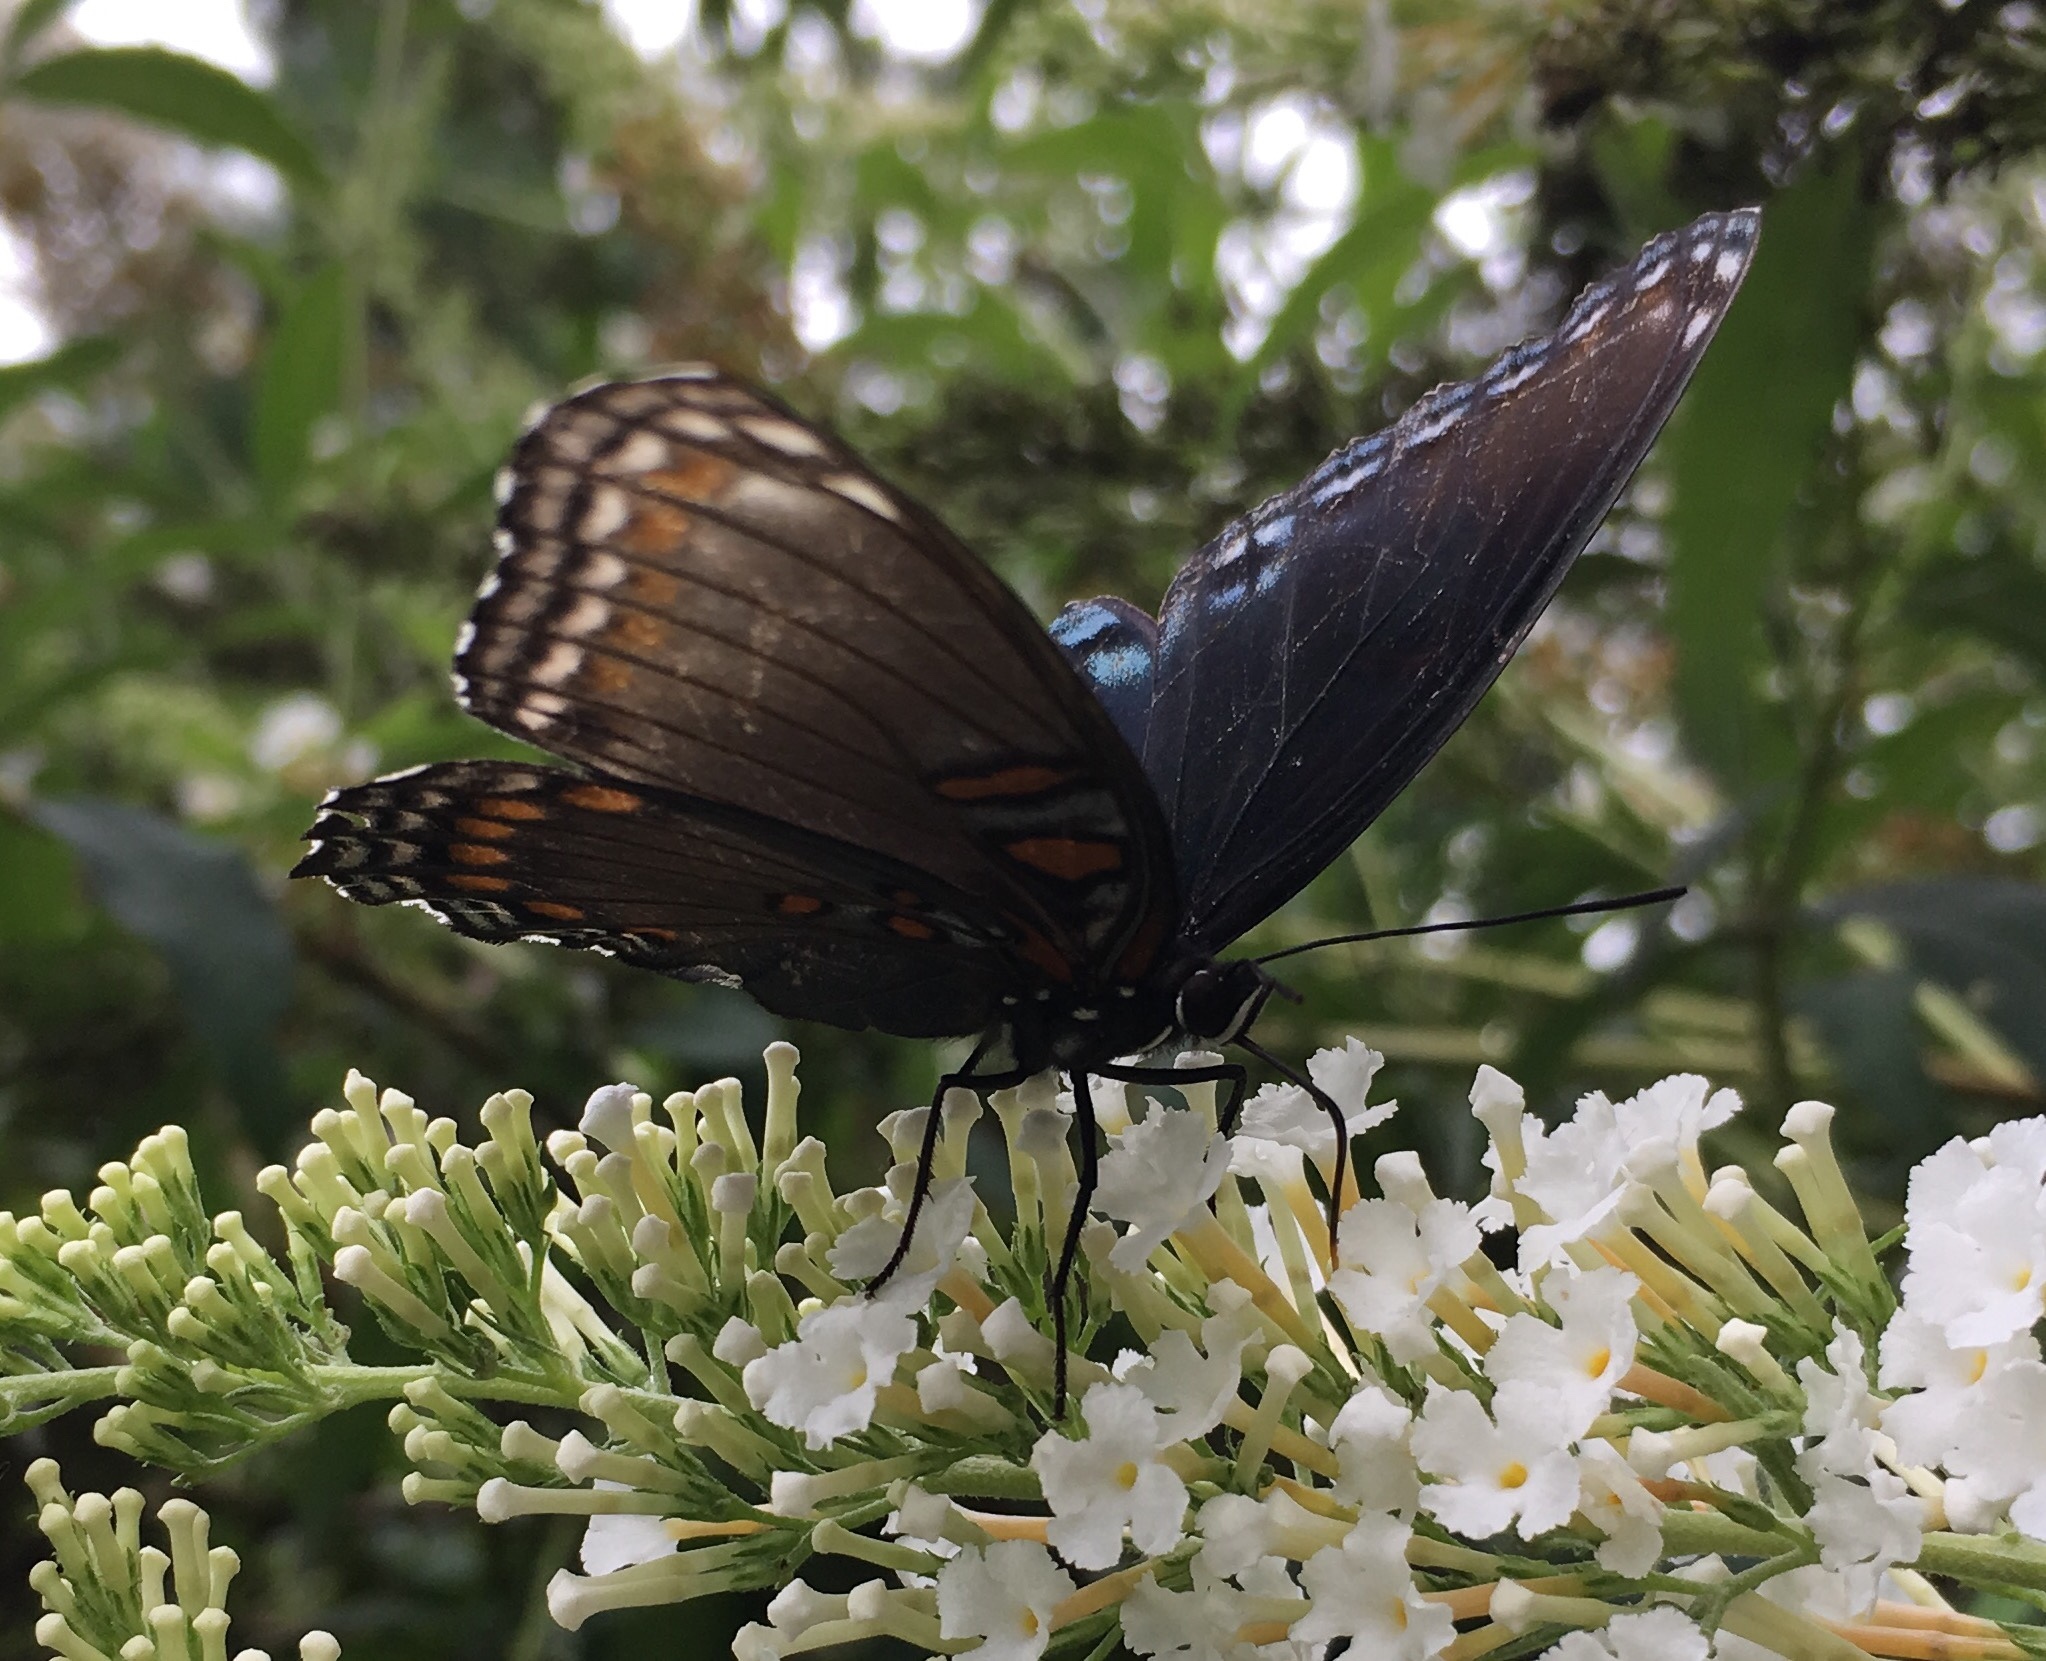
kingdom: Animalia
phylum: Arthropoda
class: Insecta
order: Lepidoptera
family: Nymphalidae
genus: Limenitis
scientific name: Limenitis astyanax
